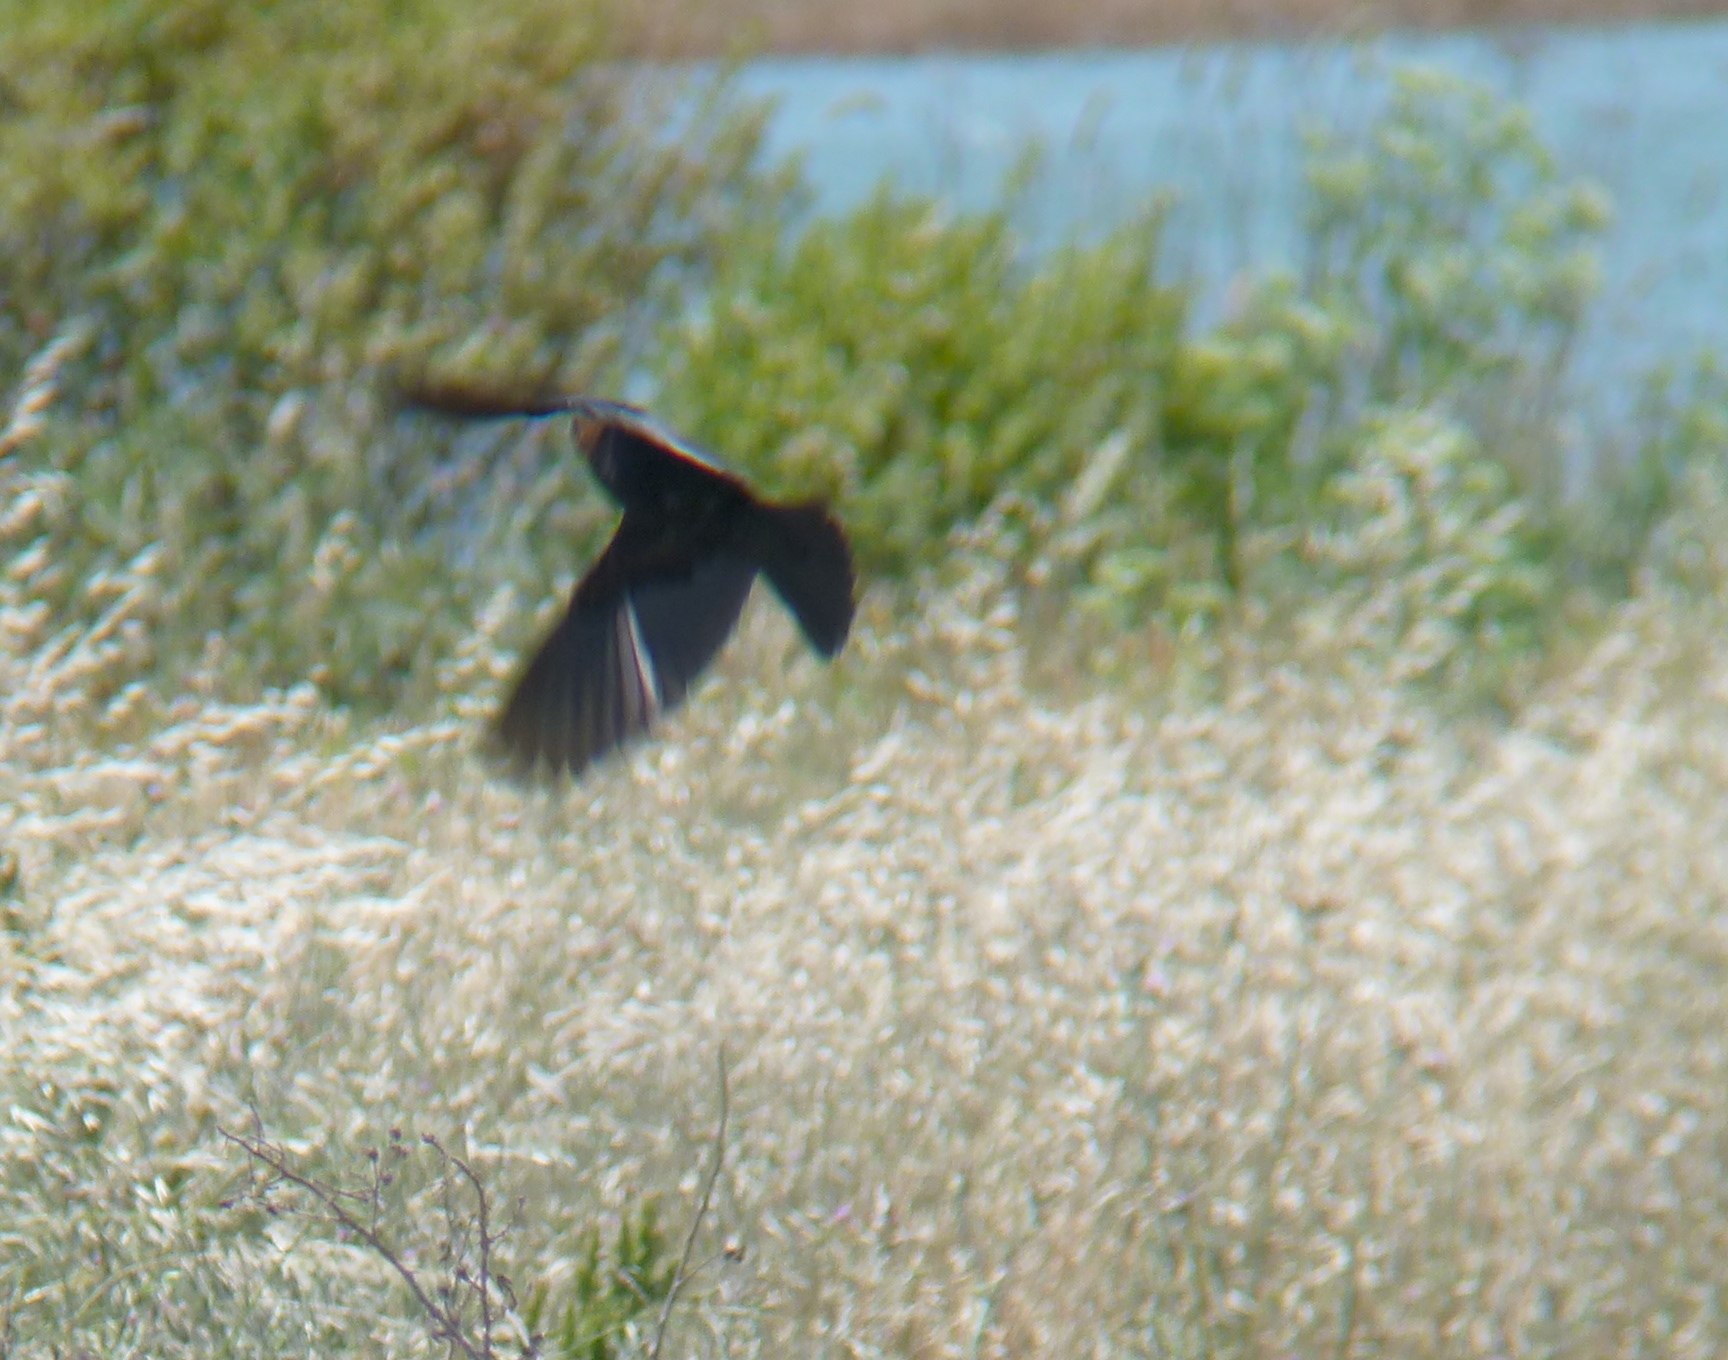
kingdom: Animalia
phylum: Chordata
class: Aves
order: Passeriformes
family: Icteridae
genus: Molothrus
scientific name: Molothrus ater
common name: Brown-headed cowbird
